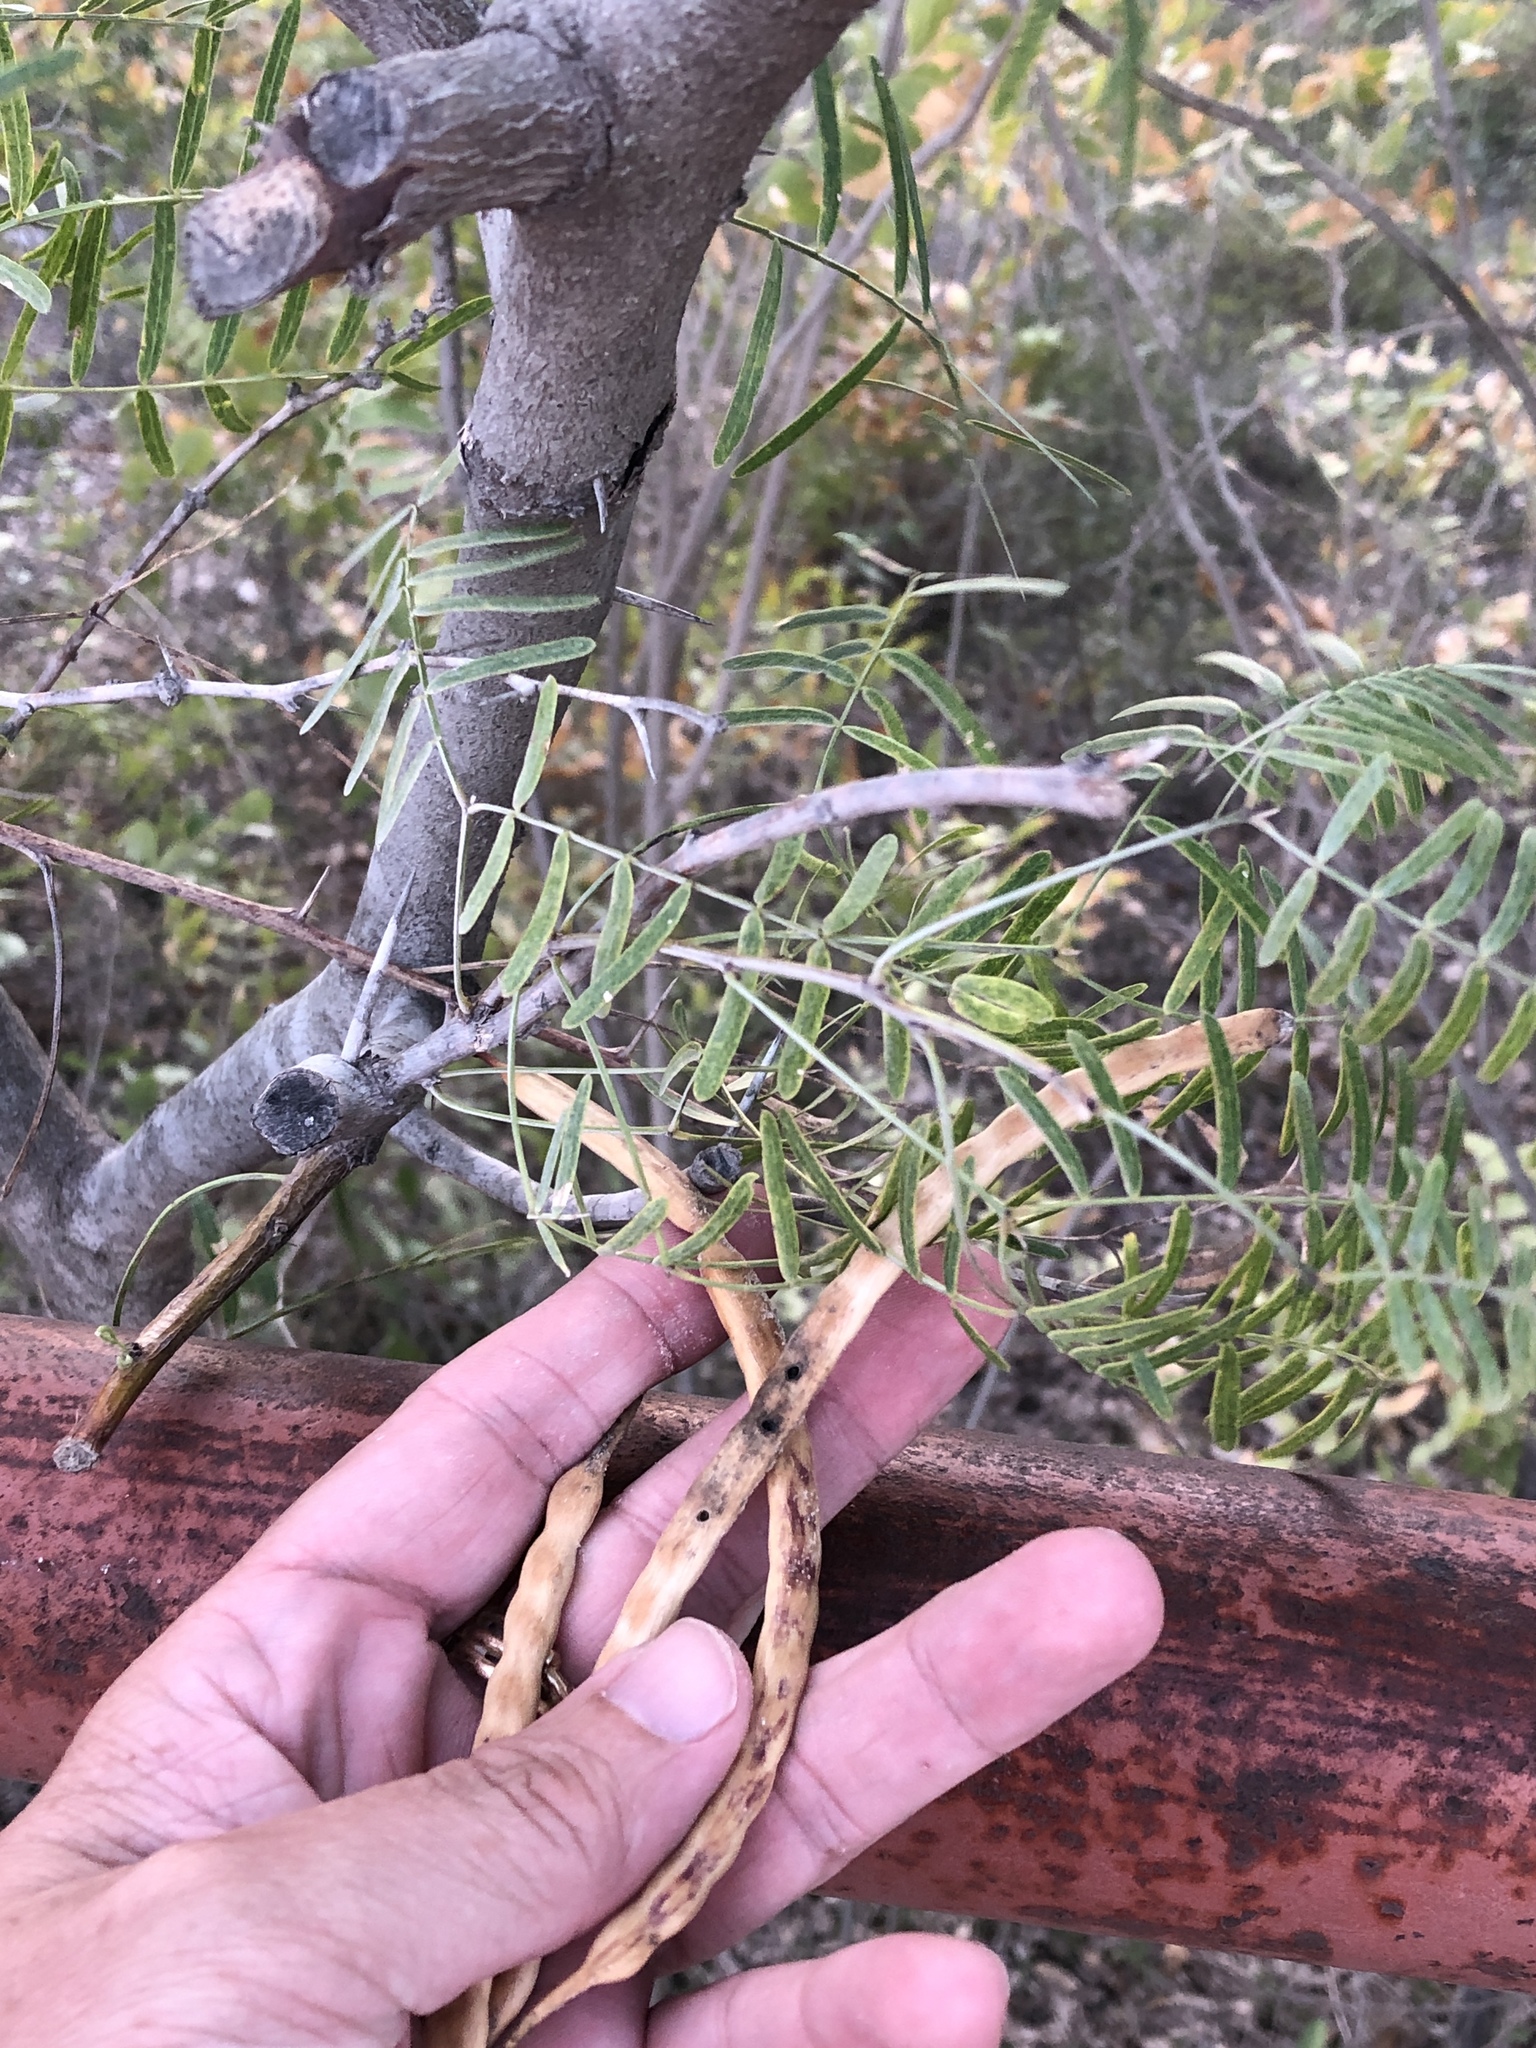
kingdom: Plantae
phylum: Tracheophyta
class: Magnoliopsida
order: Fabales
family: Fabaceae
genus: Prosopis
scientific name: Prosopis glandulosa
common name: Honey mesquite
